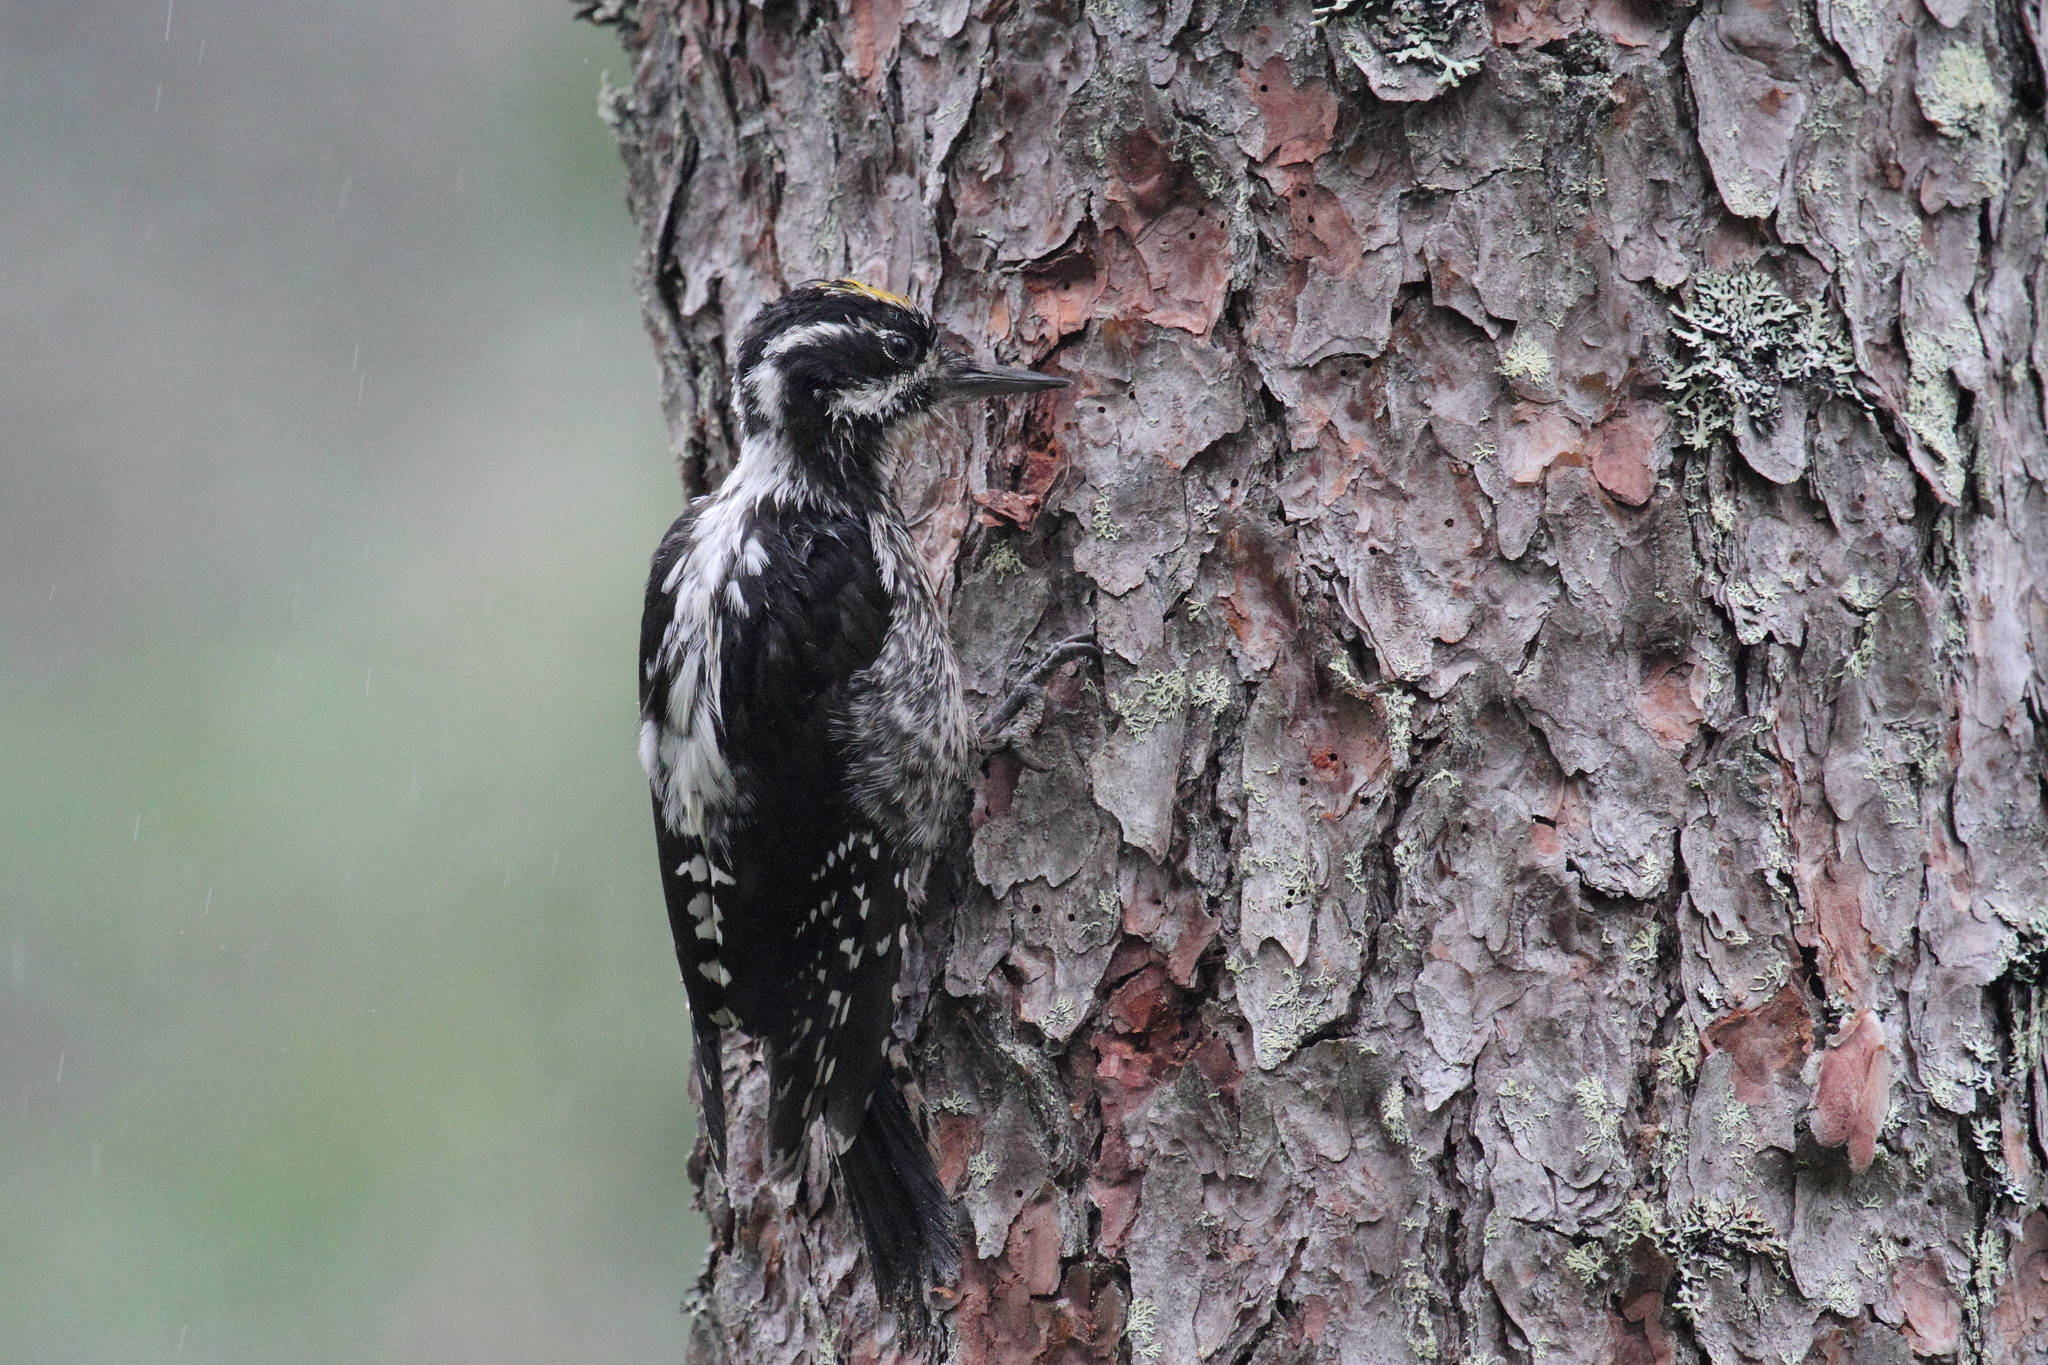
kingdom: Animalia
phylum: Chordata
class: Aves
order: Piciformes
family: Picidae
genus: Picoides
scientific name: Picoides tridactylus
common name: Eurasian three-toed woodpecker
